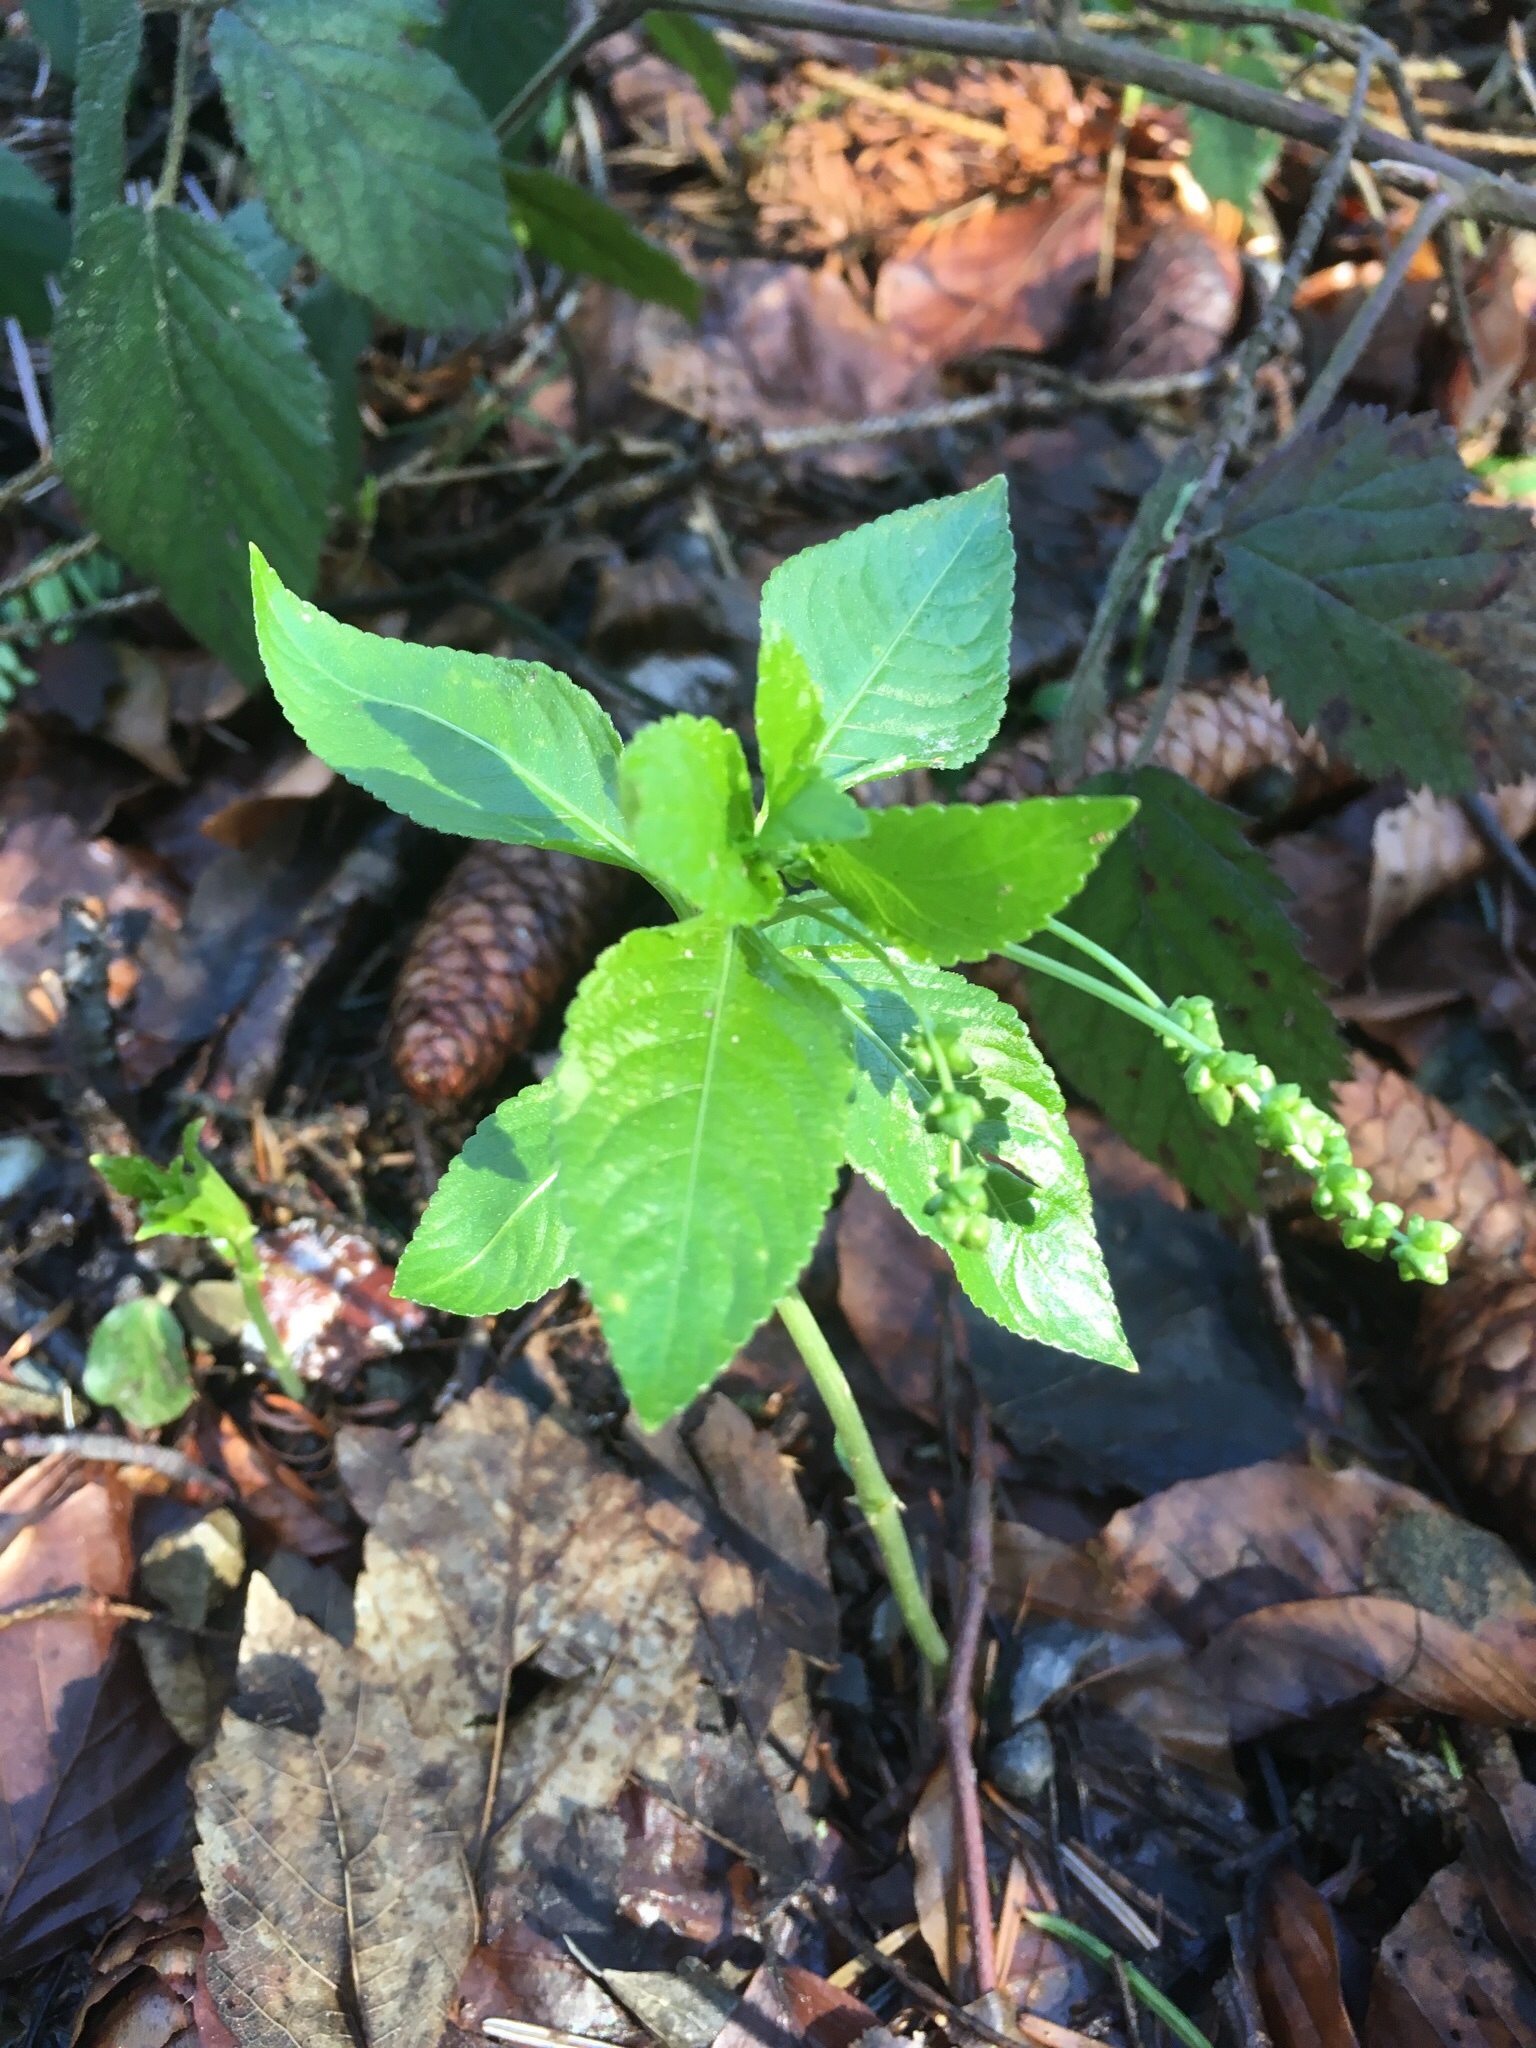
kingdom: Plantae
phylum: Tracheophyta
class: Magnoliopsida
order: Malpighiales
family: Euphorbiaceae
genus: Mercurialis
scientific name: Mercurialis perennis
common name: Dog mercury
